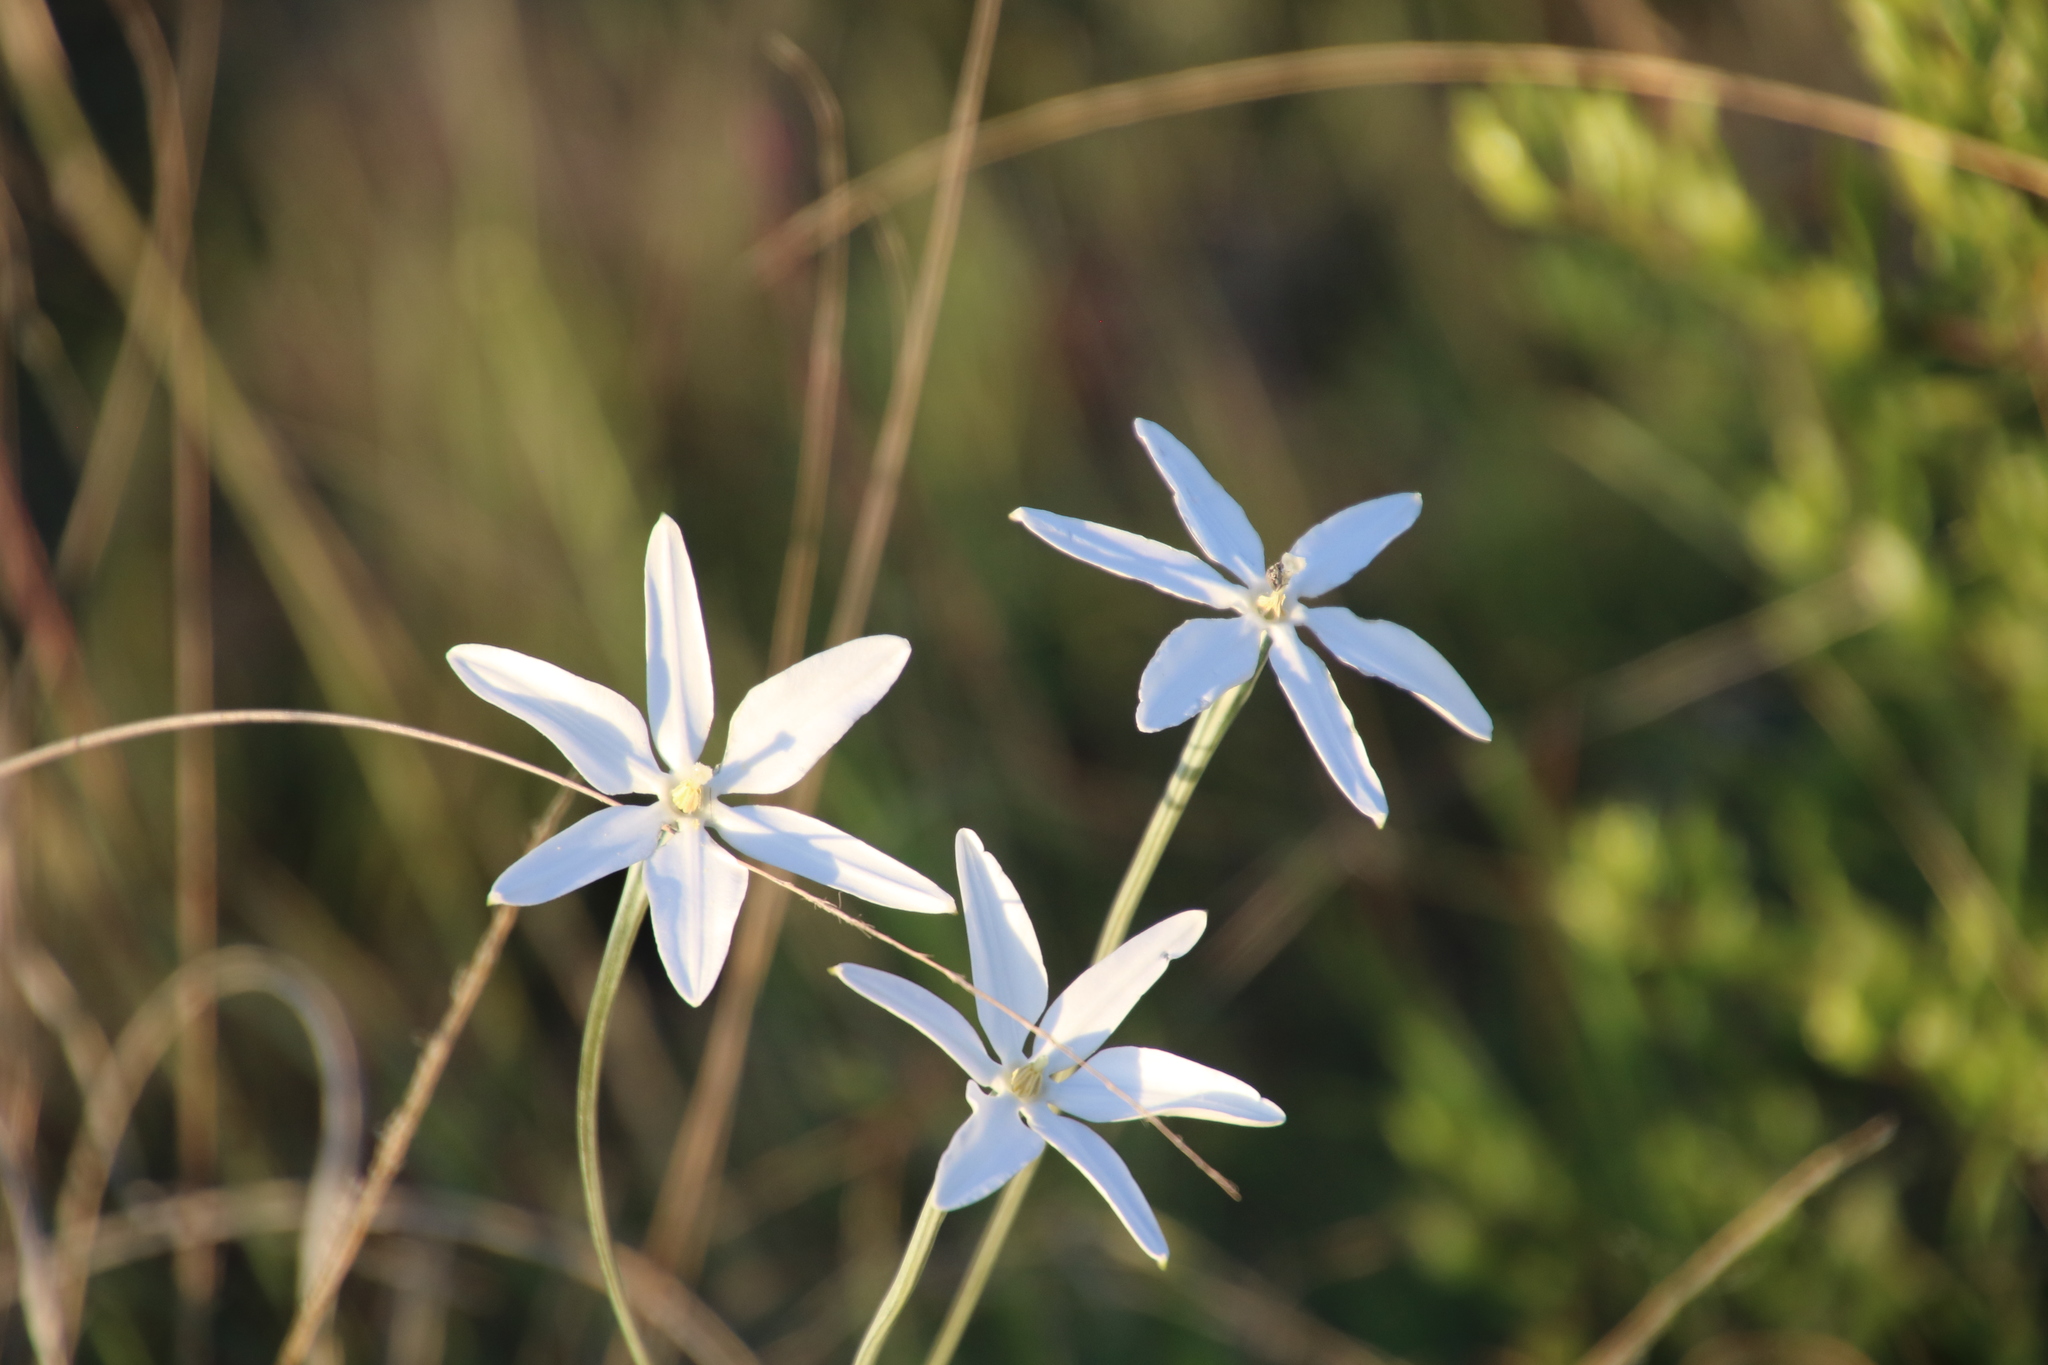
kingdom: Plantae
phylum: Tracheophyta
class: Liliopsida
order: Asparagales
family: Asparagaceae
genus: Milla
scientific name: Milla biflora
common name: Mexican-star
